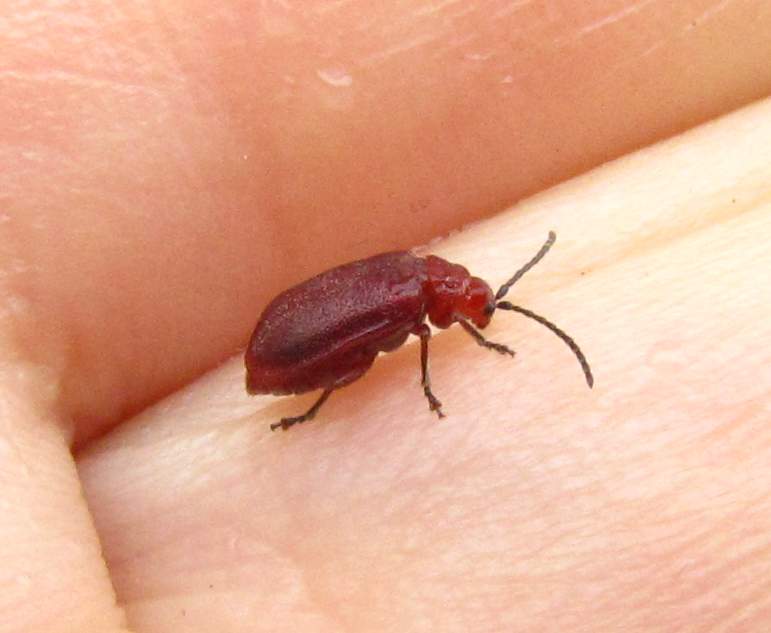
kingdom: Animalia
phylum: Arthropoda
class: Insecta
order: Coleoptera
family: Chrysomelidae
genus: Tricholochmaea
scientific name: Tricholochmaea cavicollis
